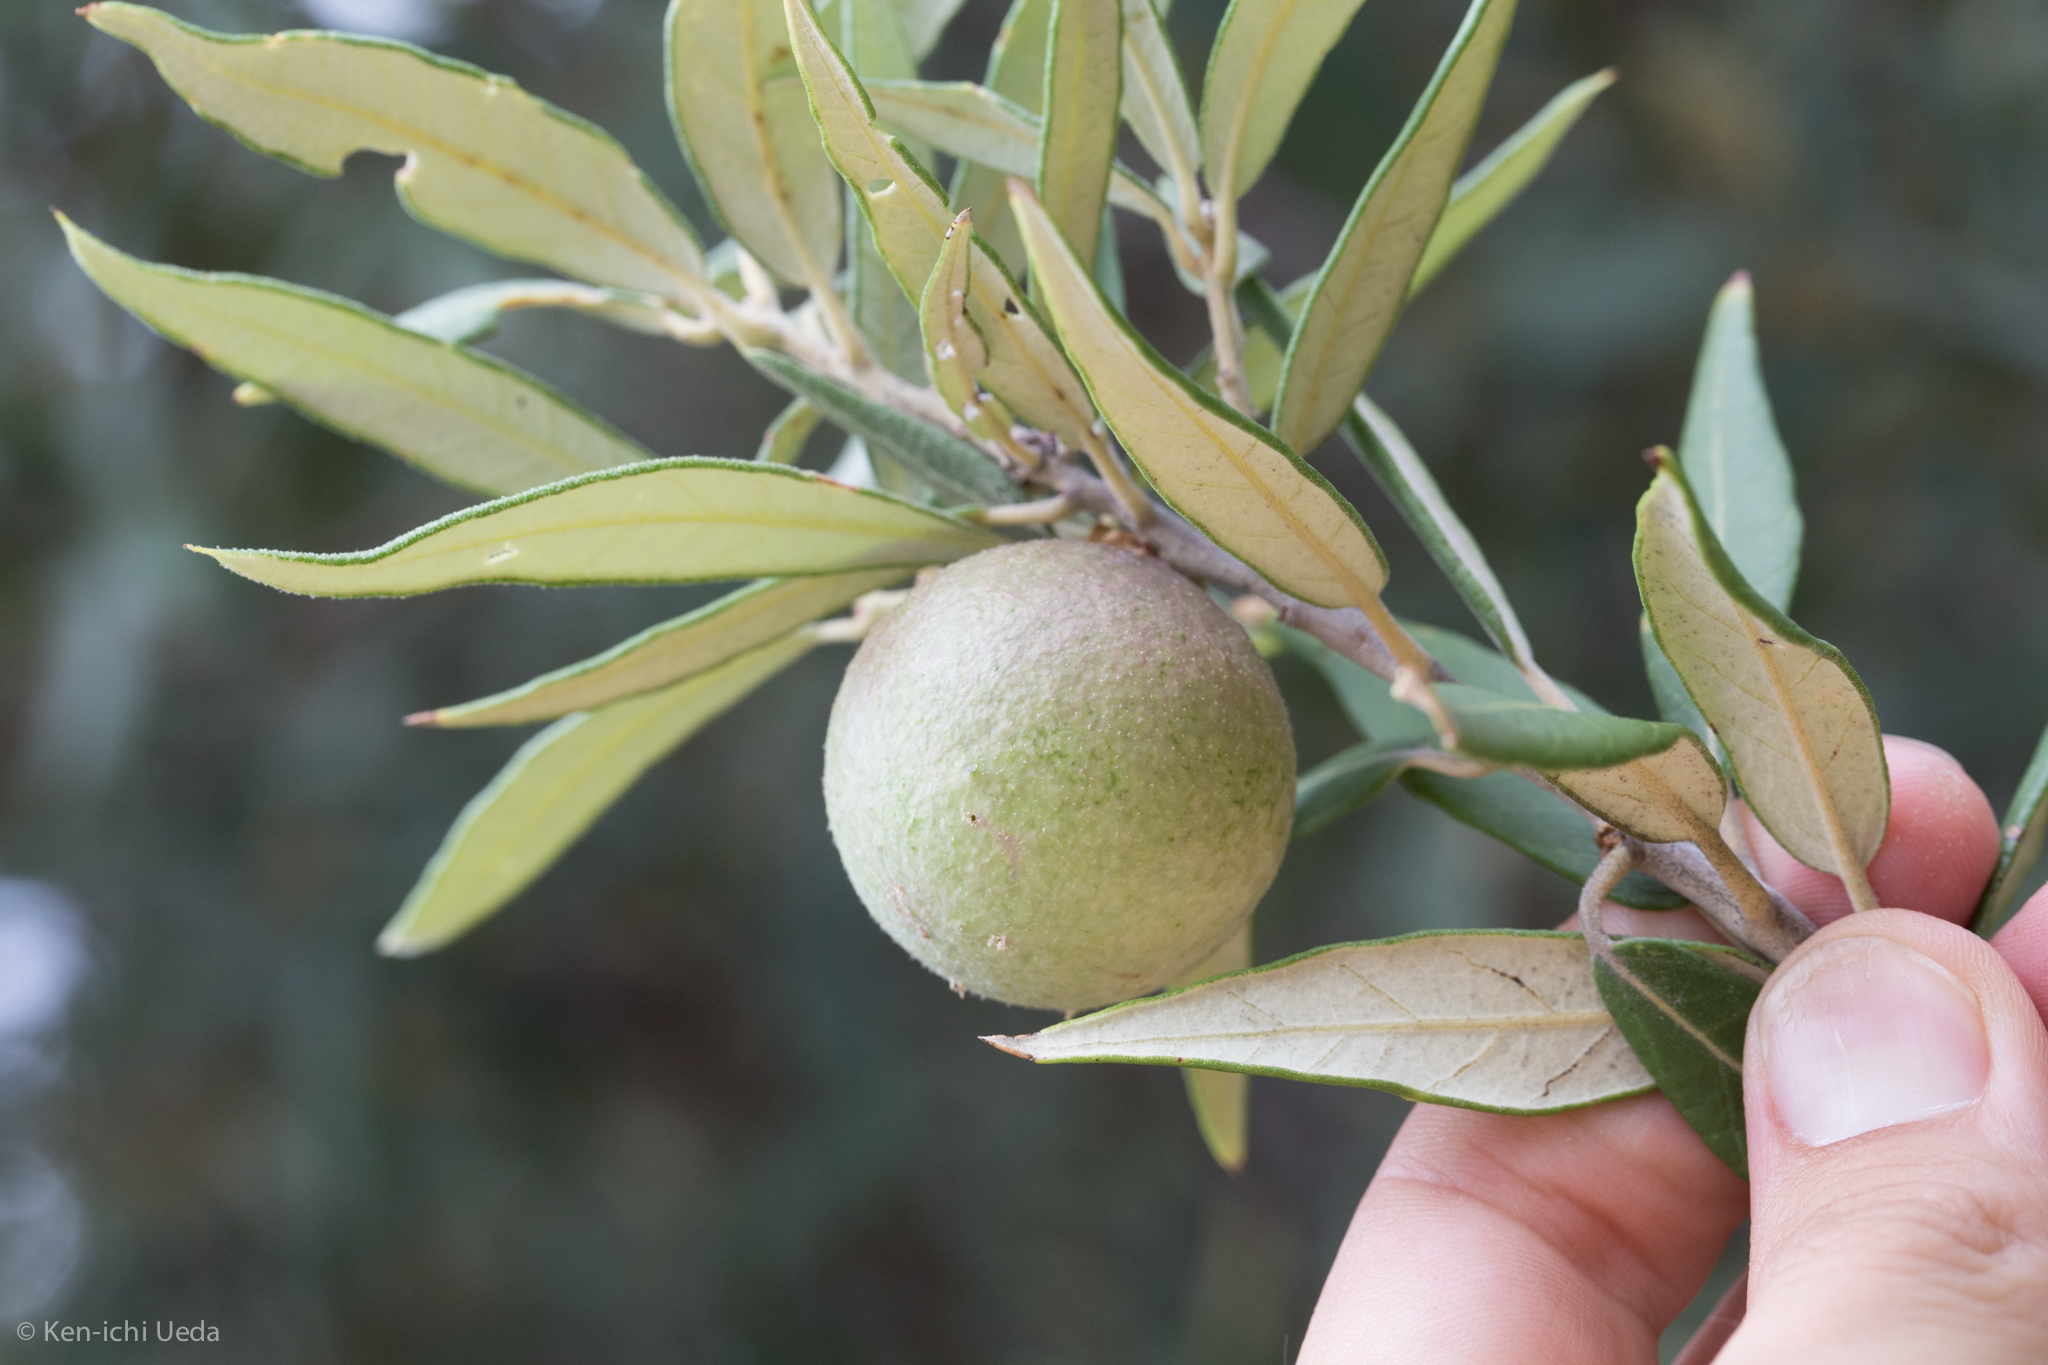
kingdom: Animalia
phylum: Arthropoda
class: Insecta
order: Hymenoptera
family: Cynipidae
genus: Amphibolips
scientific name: Amphibolips
